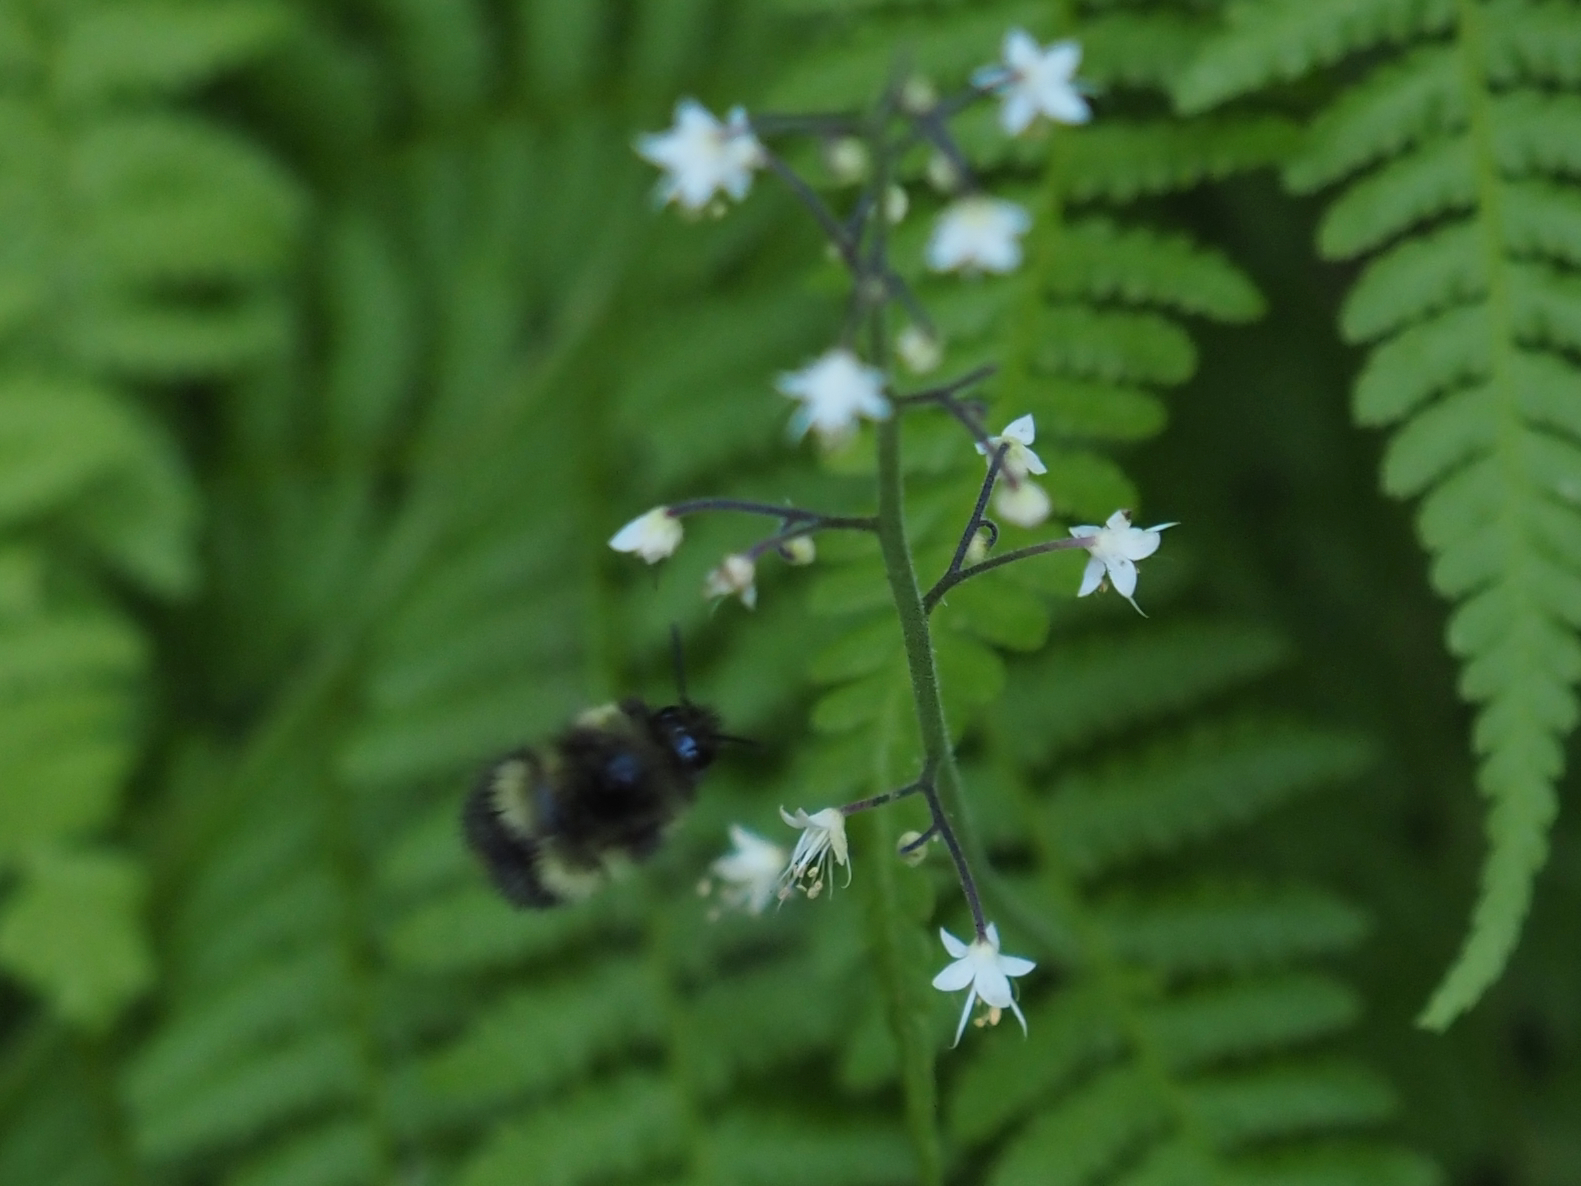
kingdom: Animalia
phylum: Arthropoda
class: Insecta
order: Hymenoptera
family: Apidae
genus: Bombus
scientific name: Bombus sitkensis
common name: Sitka bumble bee
